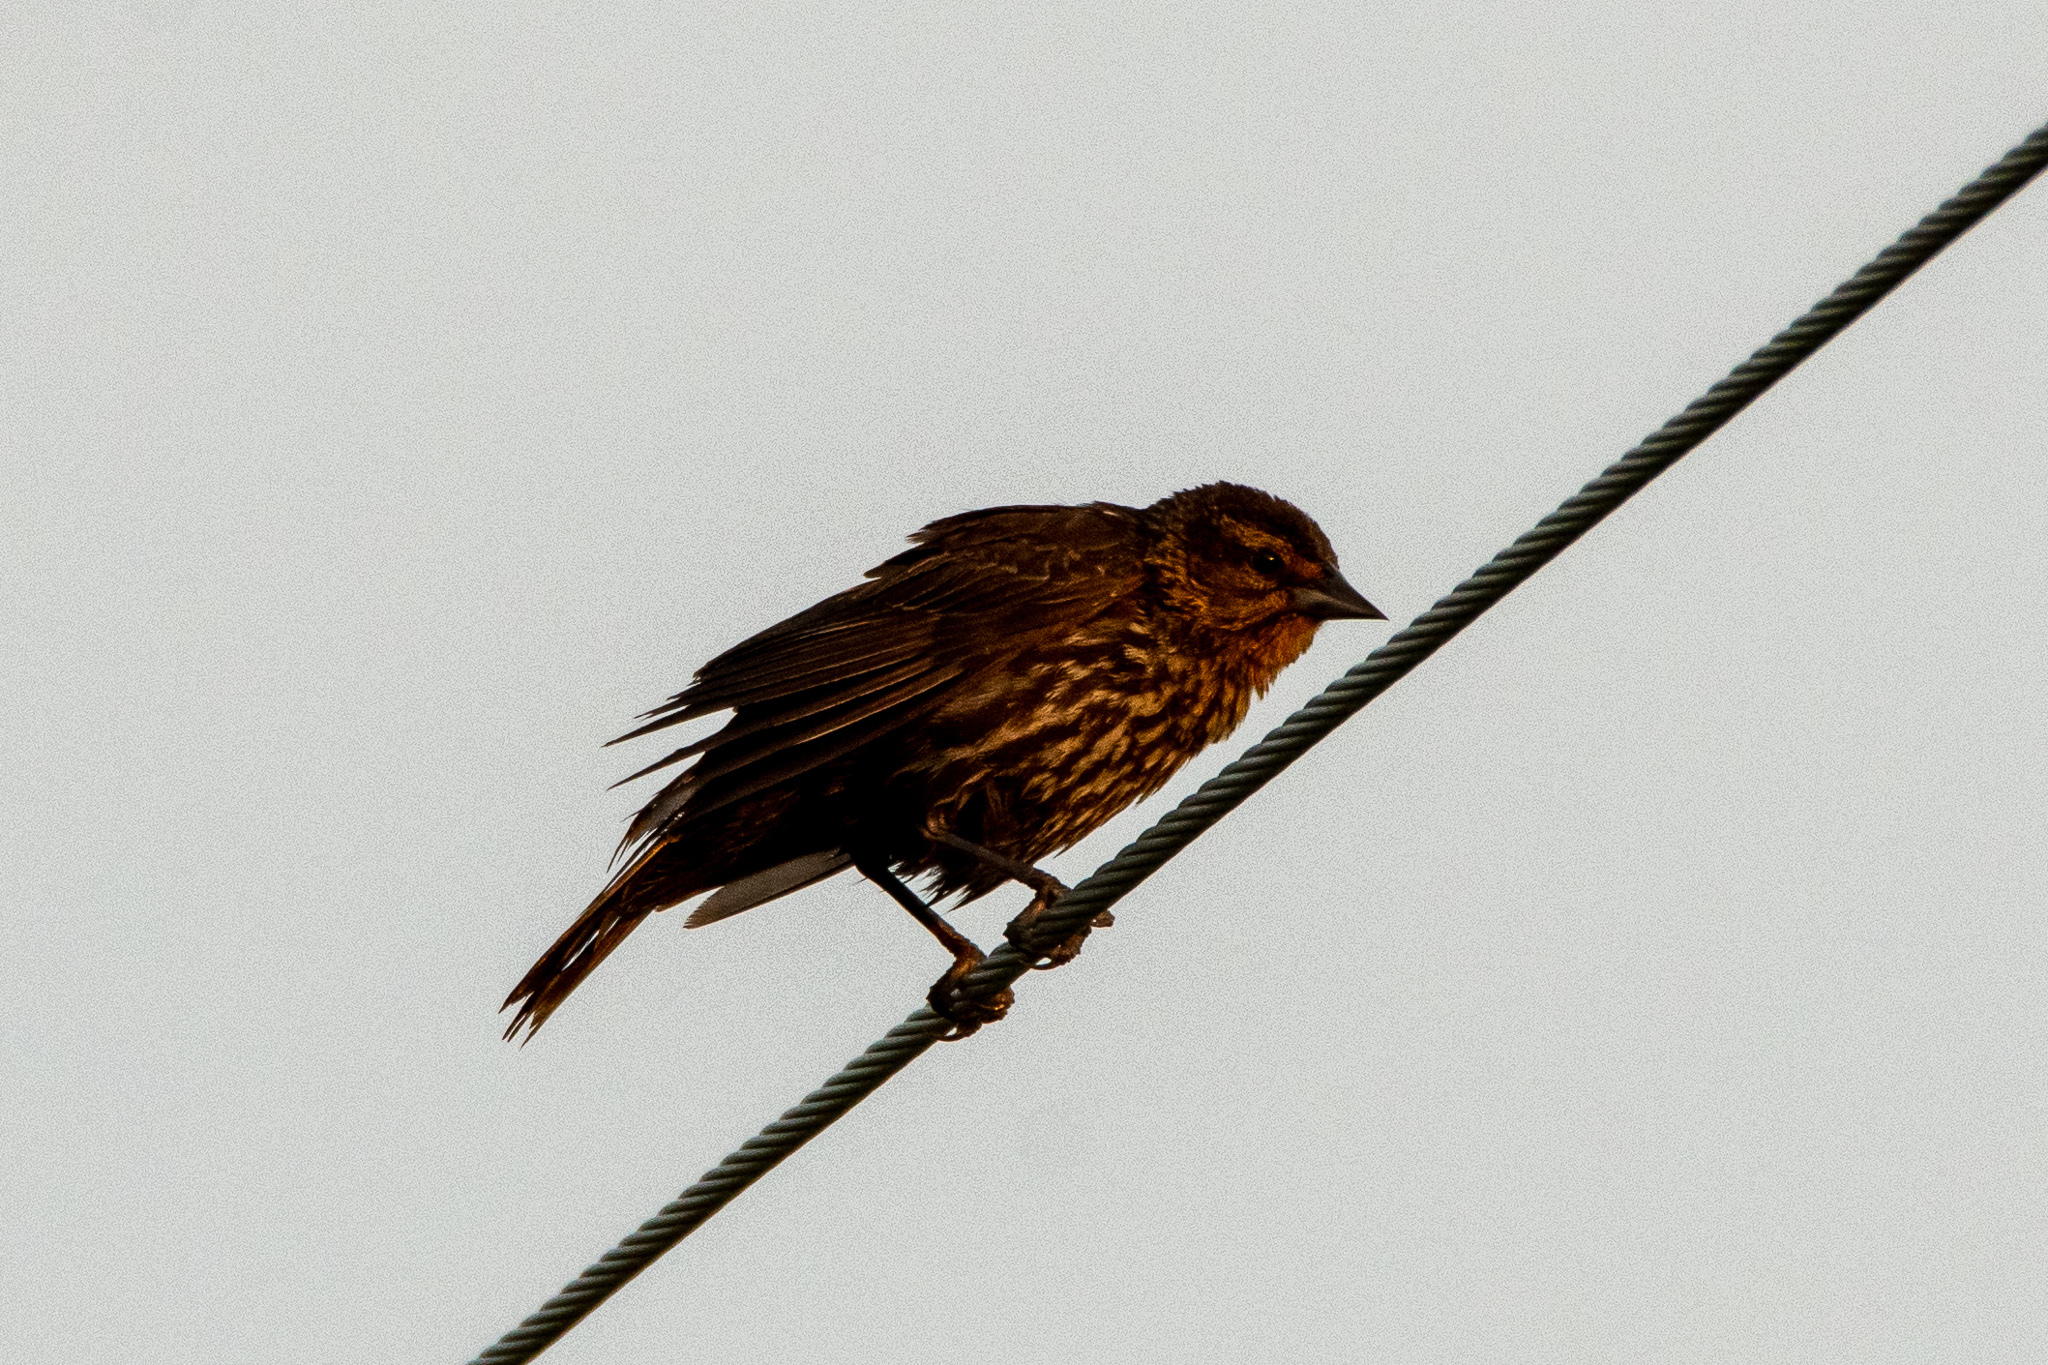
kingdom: Animalia
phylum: Chordata
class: Aves
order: Passeriformes
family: Icteridae
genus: Agelaius
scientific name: Agelaius phoeniceus
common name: Red-winged blackbird
